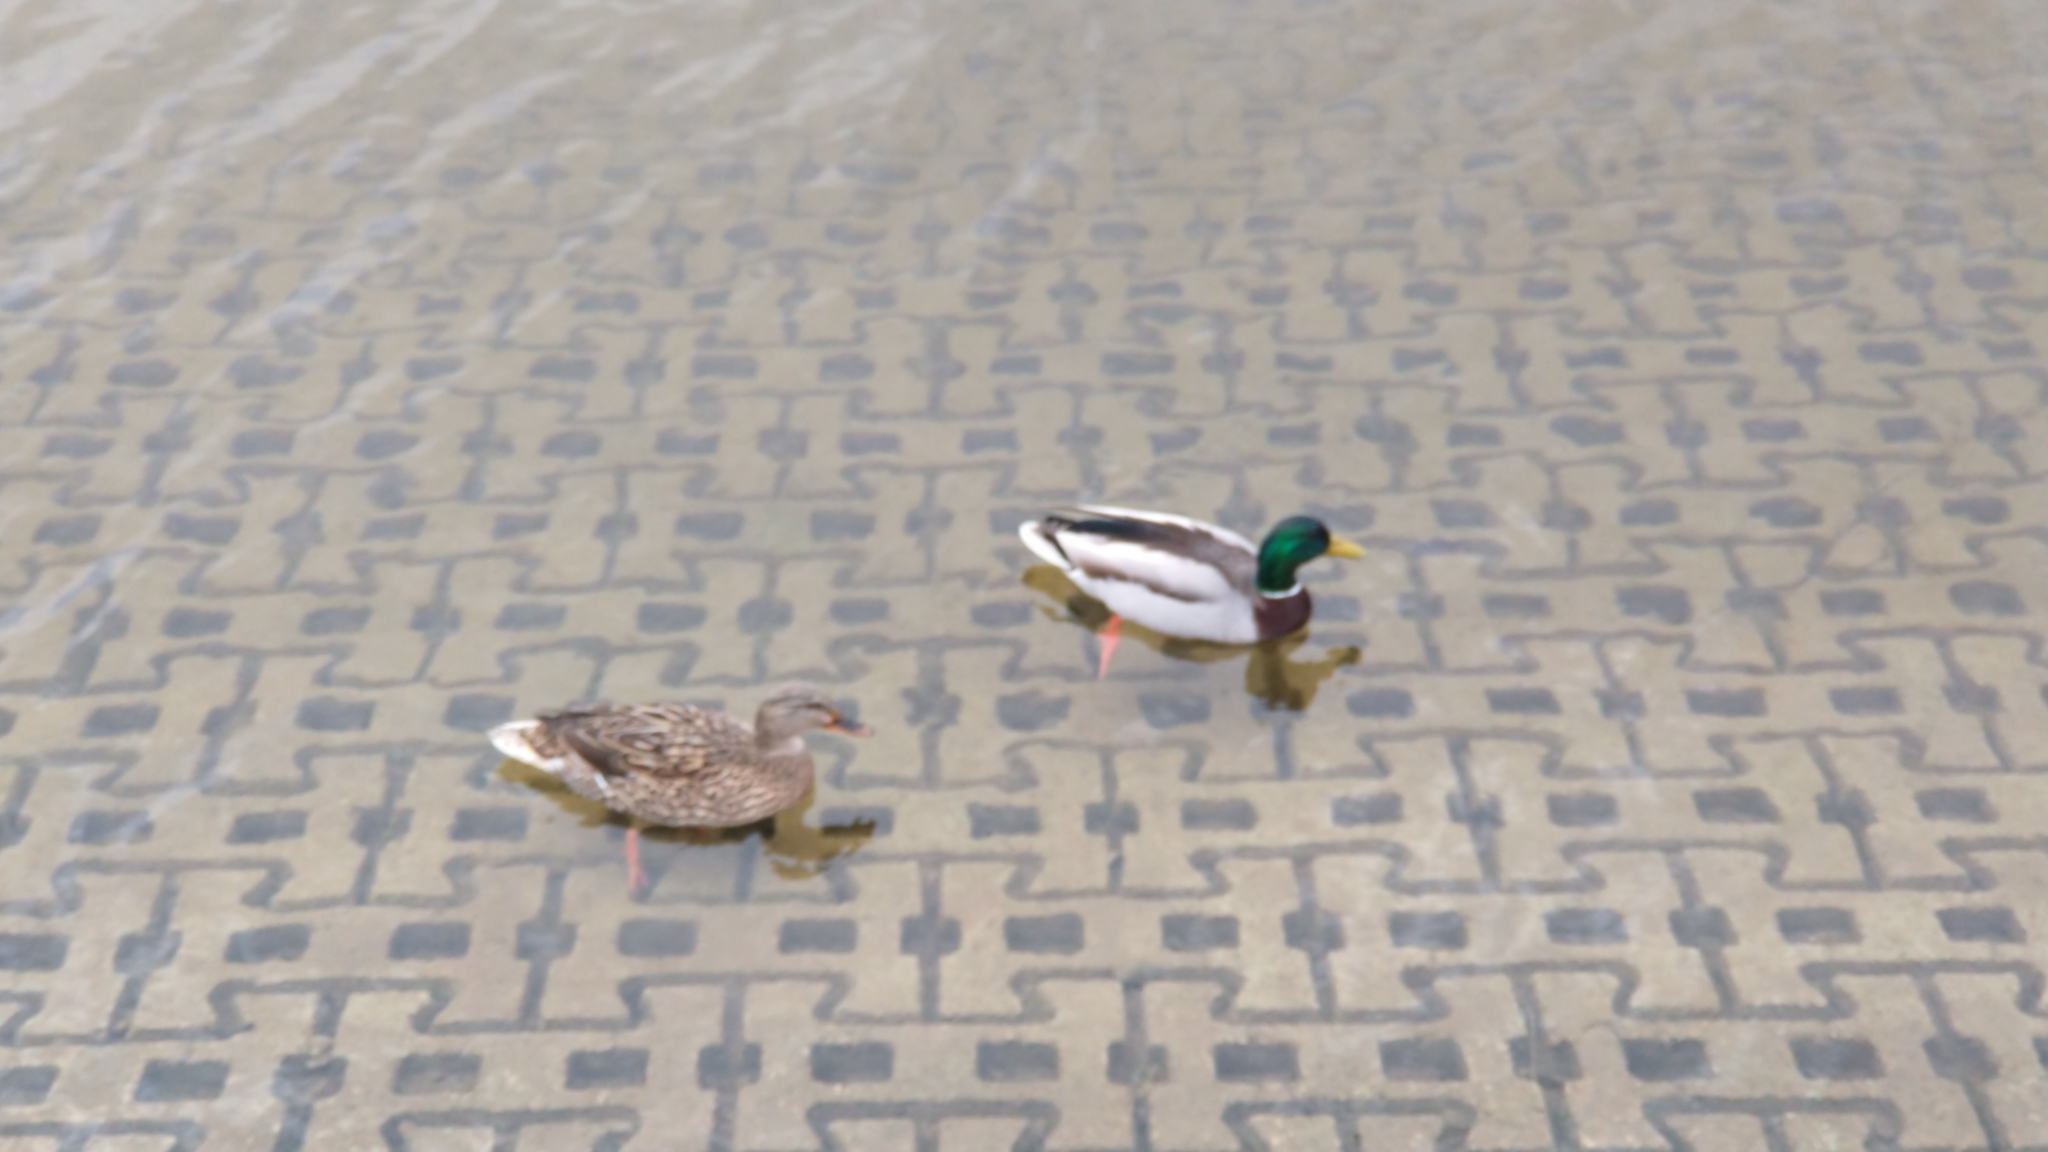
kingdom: Animalia
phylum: Chordata
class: Aves
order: Anseriformes
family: Anatidae
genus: Anas
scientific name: Anas platyrhynchos
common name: Mallard
